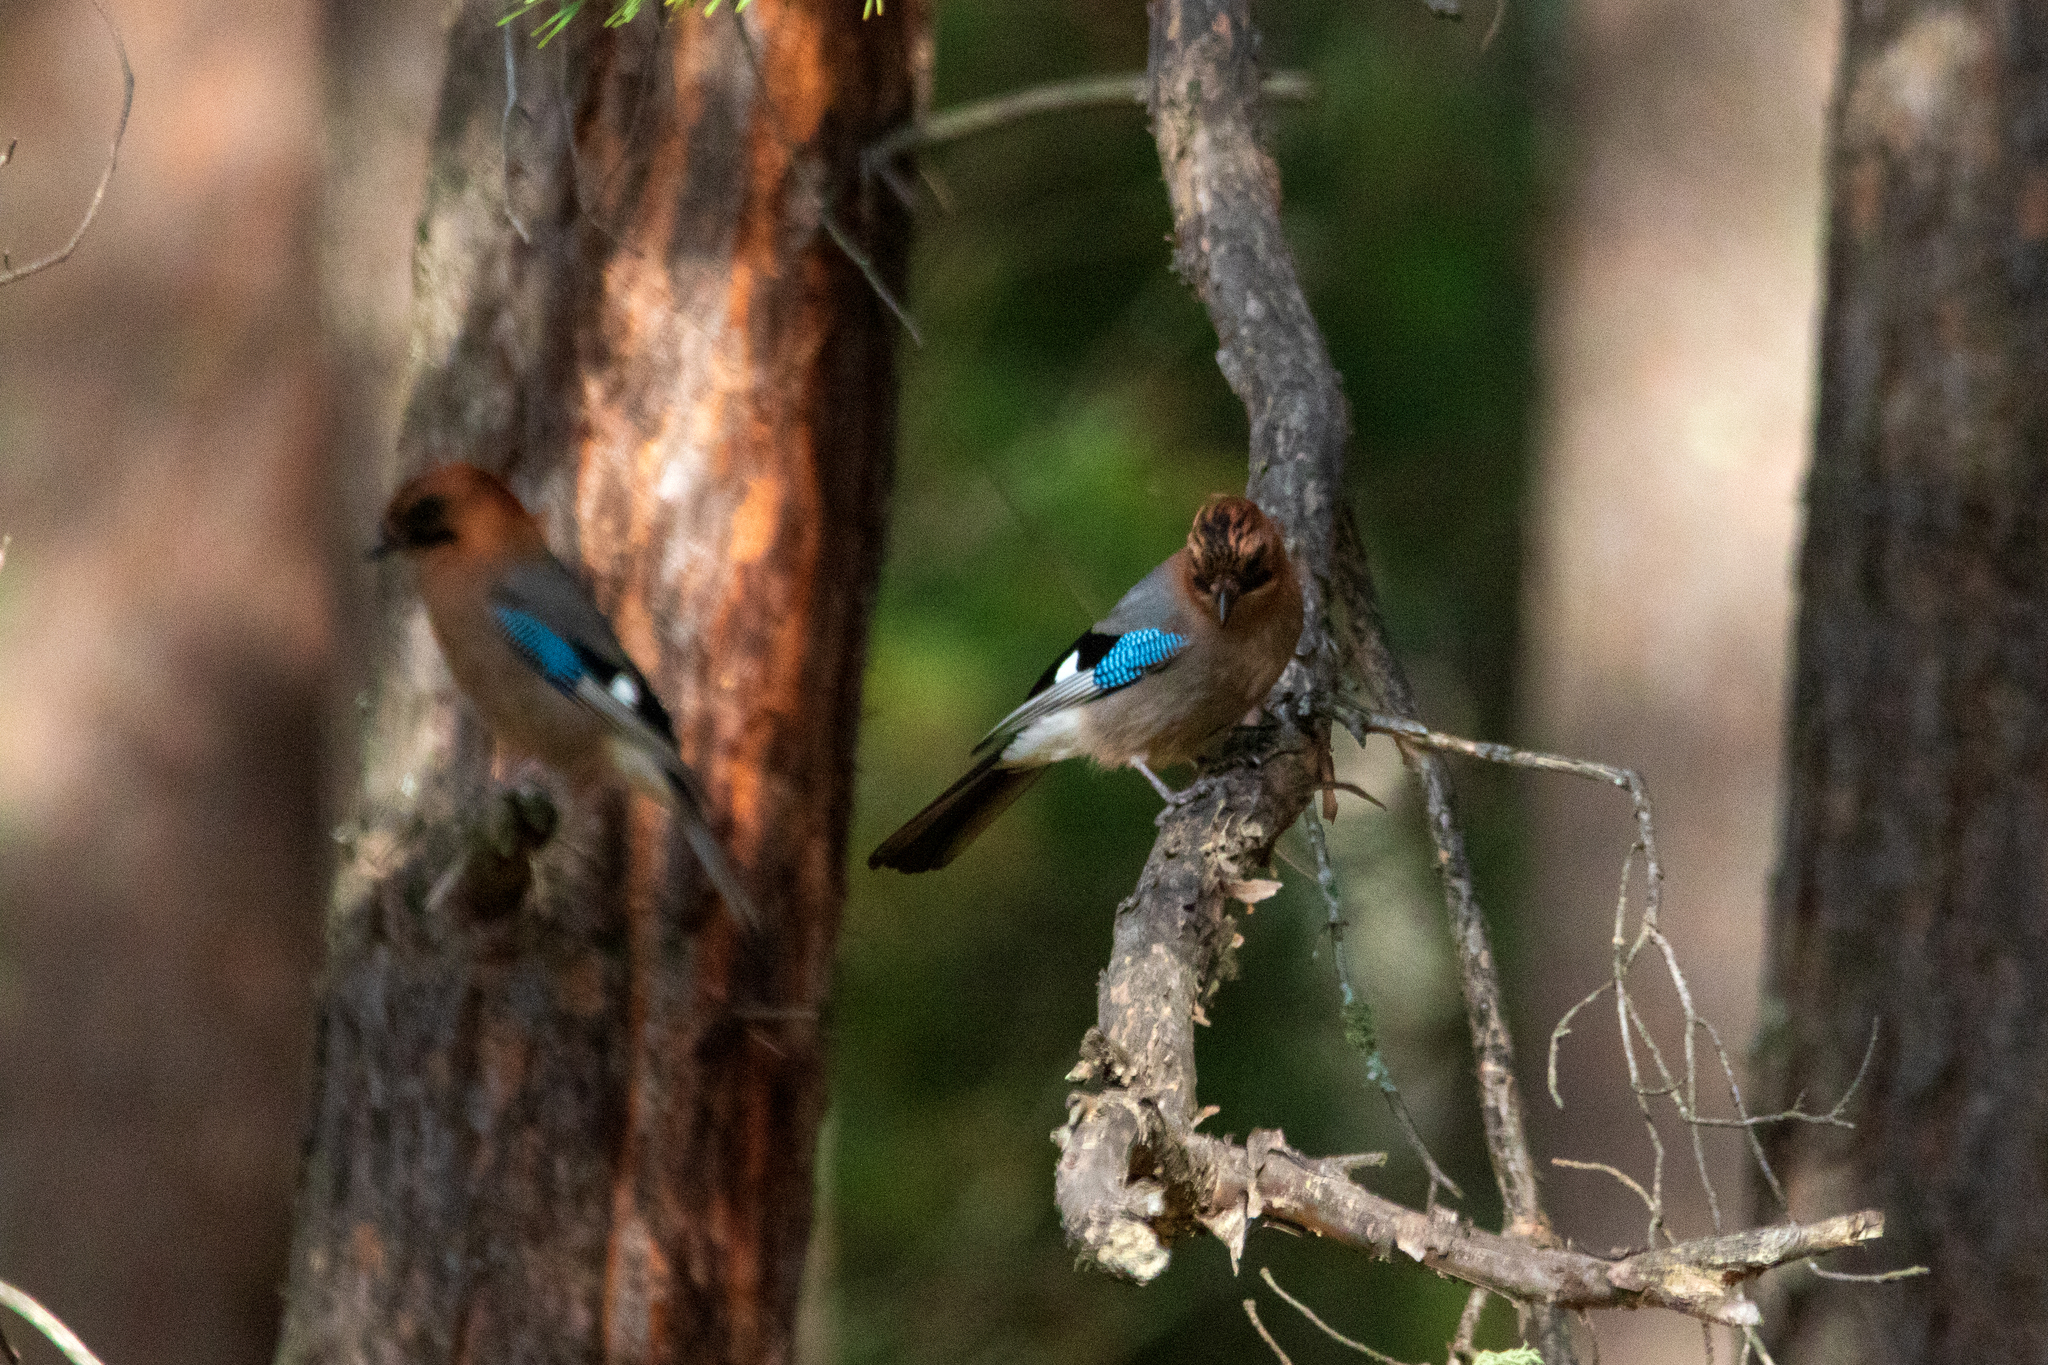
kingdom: Animalia
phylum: Chordata
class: Aves
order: Passeriformes
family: Corvidae
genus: Garrulus
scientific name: Garrulus glandarius
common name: Eurasian jay
